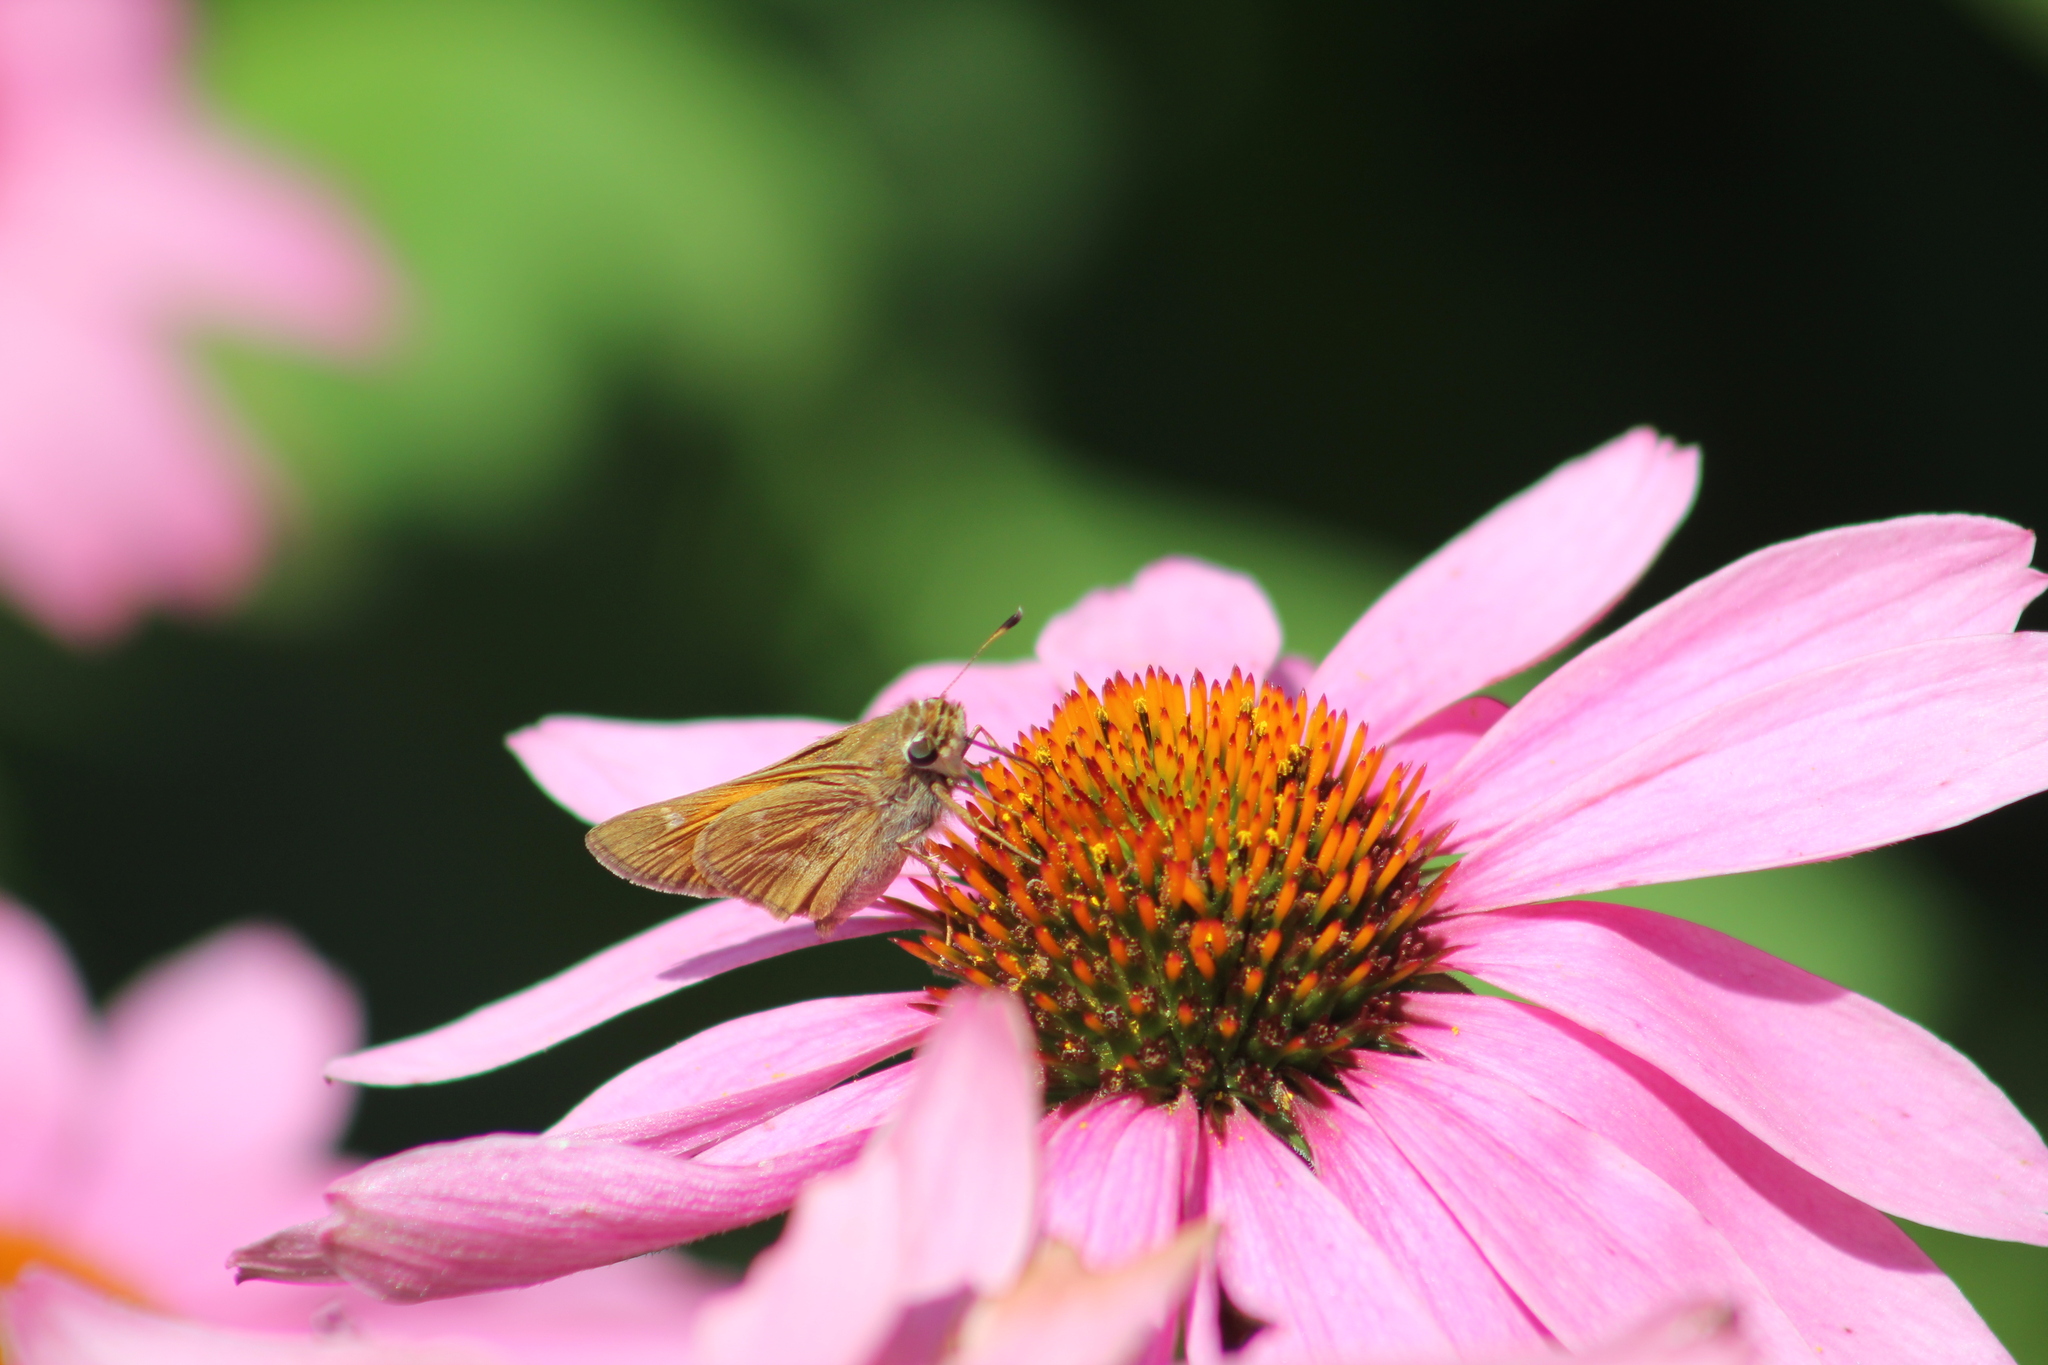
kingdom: Animalia
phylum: Arthropoda
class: Insecta
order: Lepidoptera
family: Hesperiidae
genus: Atalopedes
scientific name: Atalopedes
